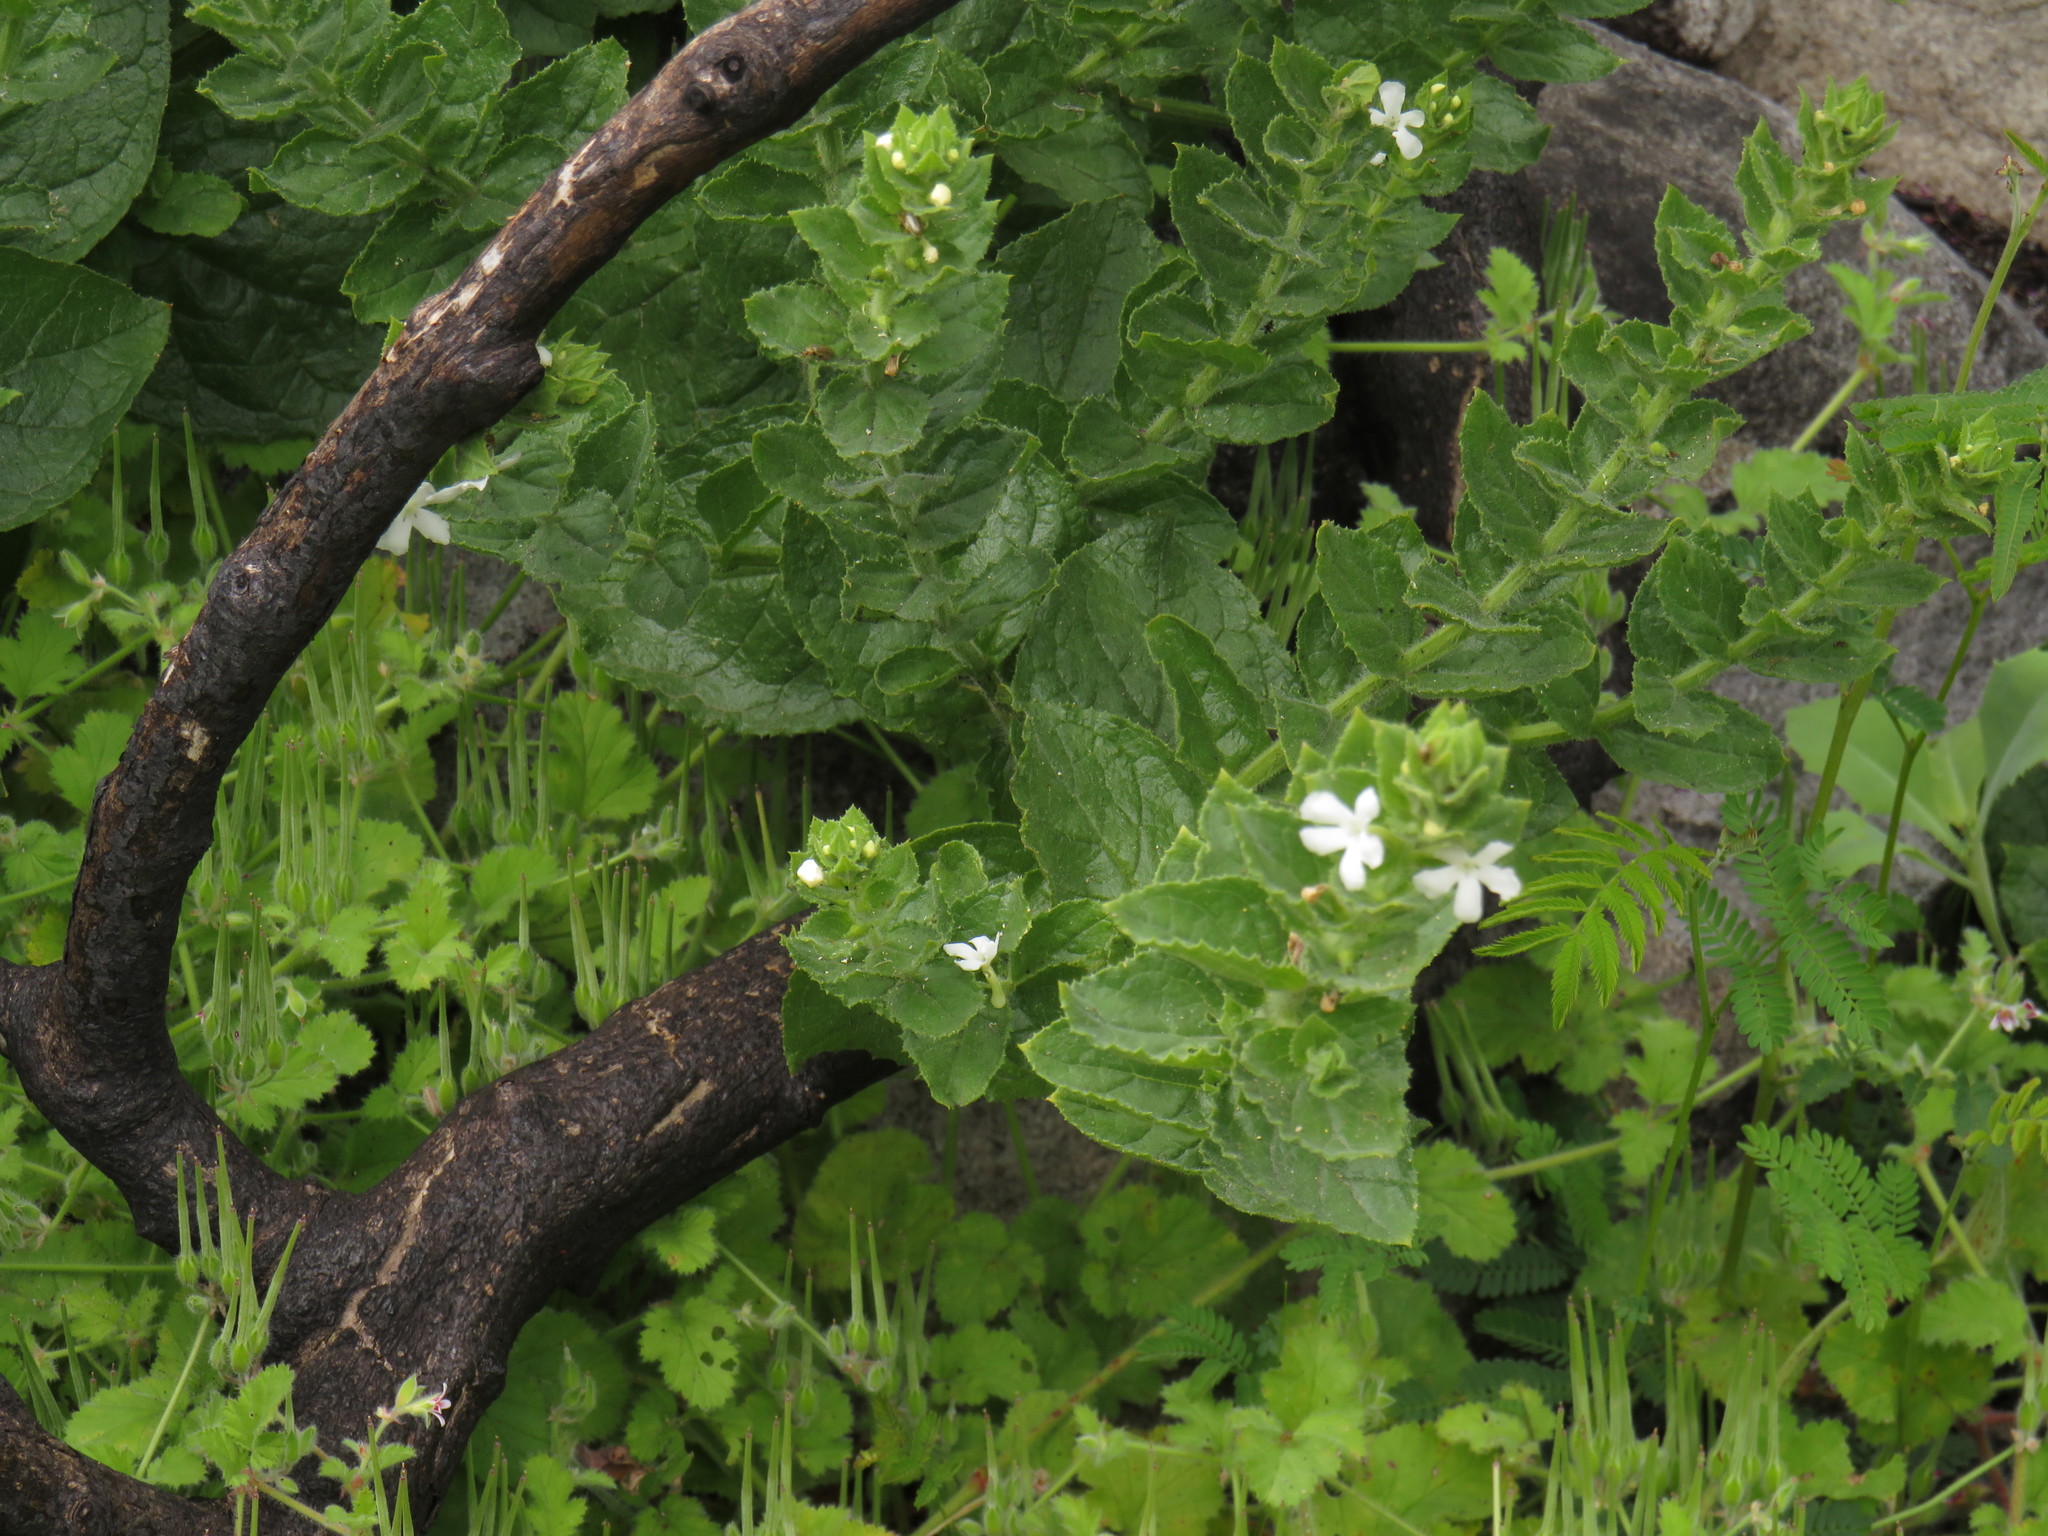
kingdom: Plantae
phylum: Tracheophyta
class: Magnoliopsida
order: Lamiales
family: Scrophulariaceae
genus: Oftia
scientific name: Oftia africana
